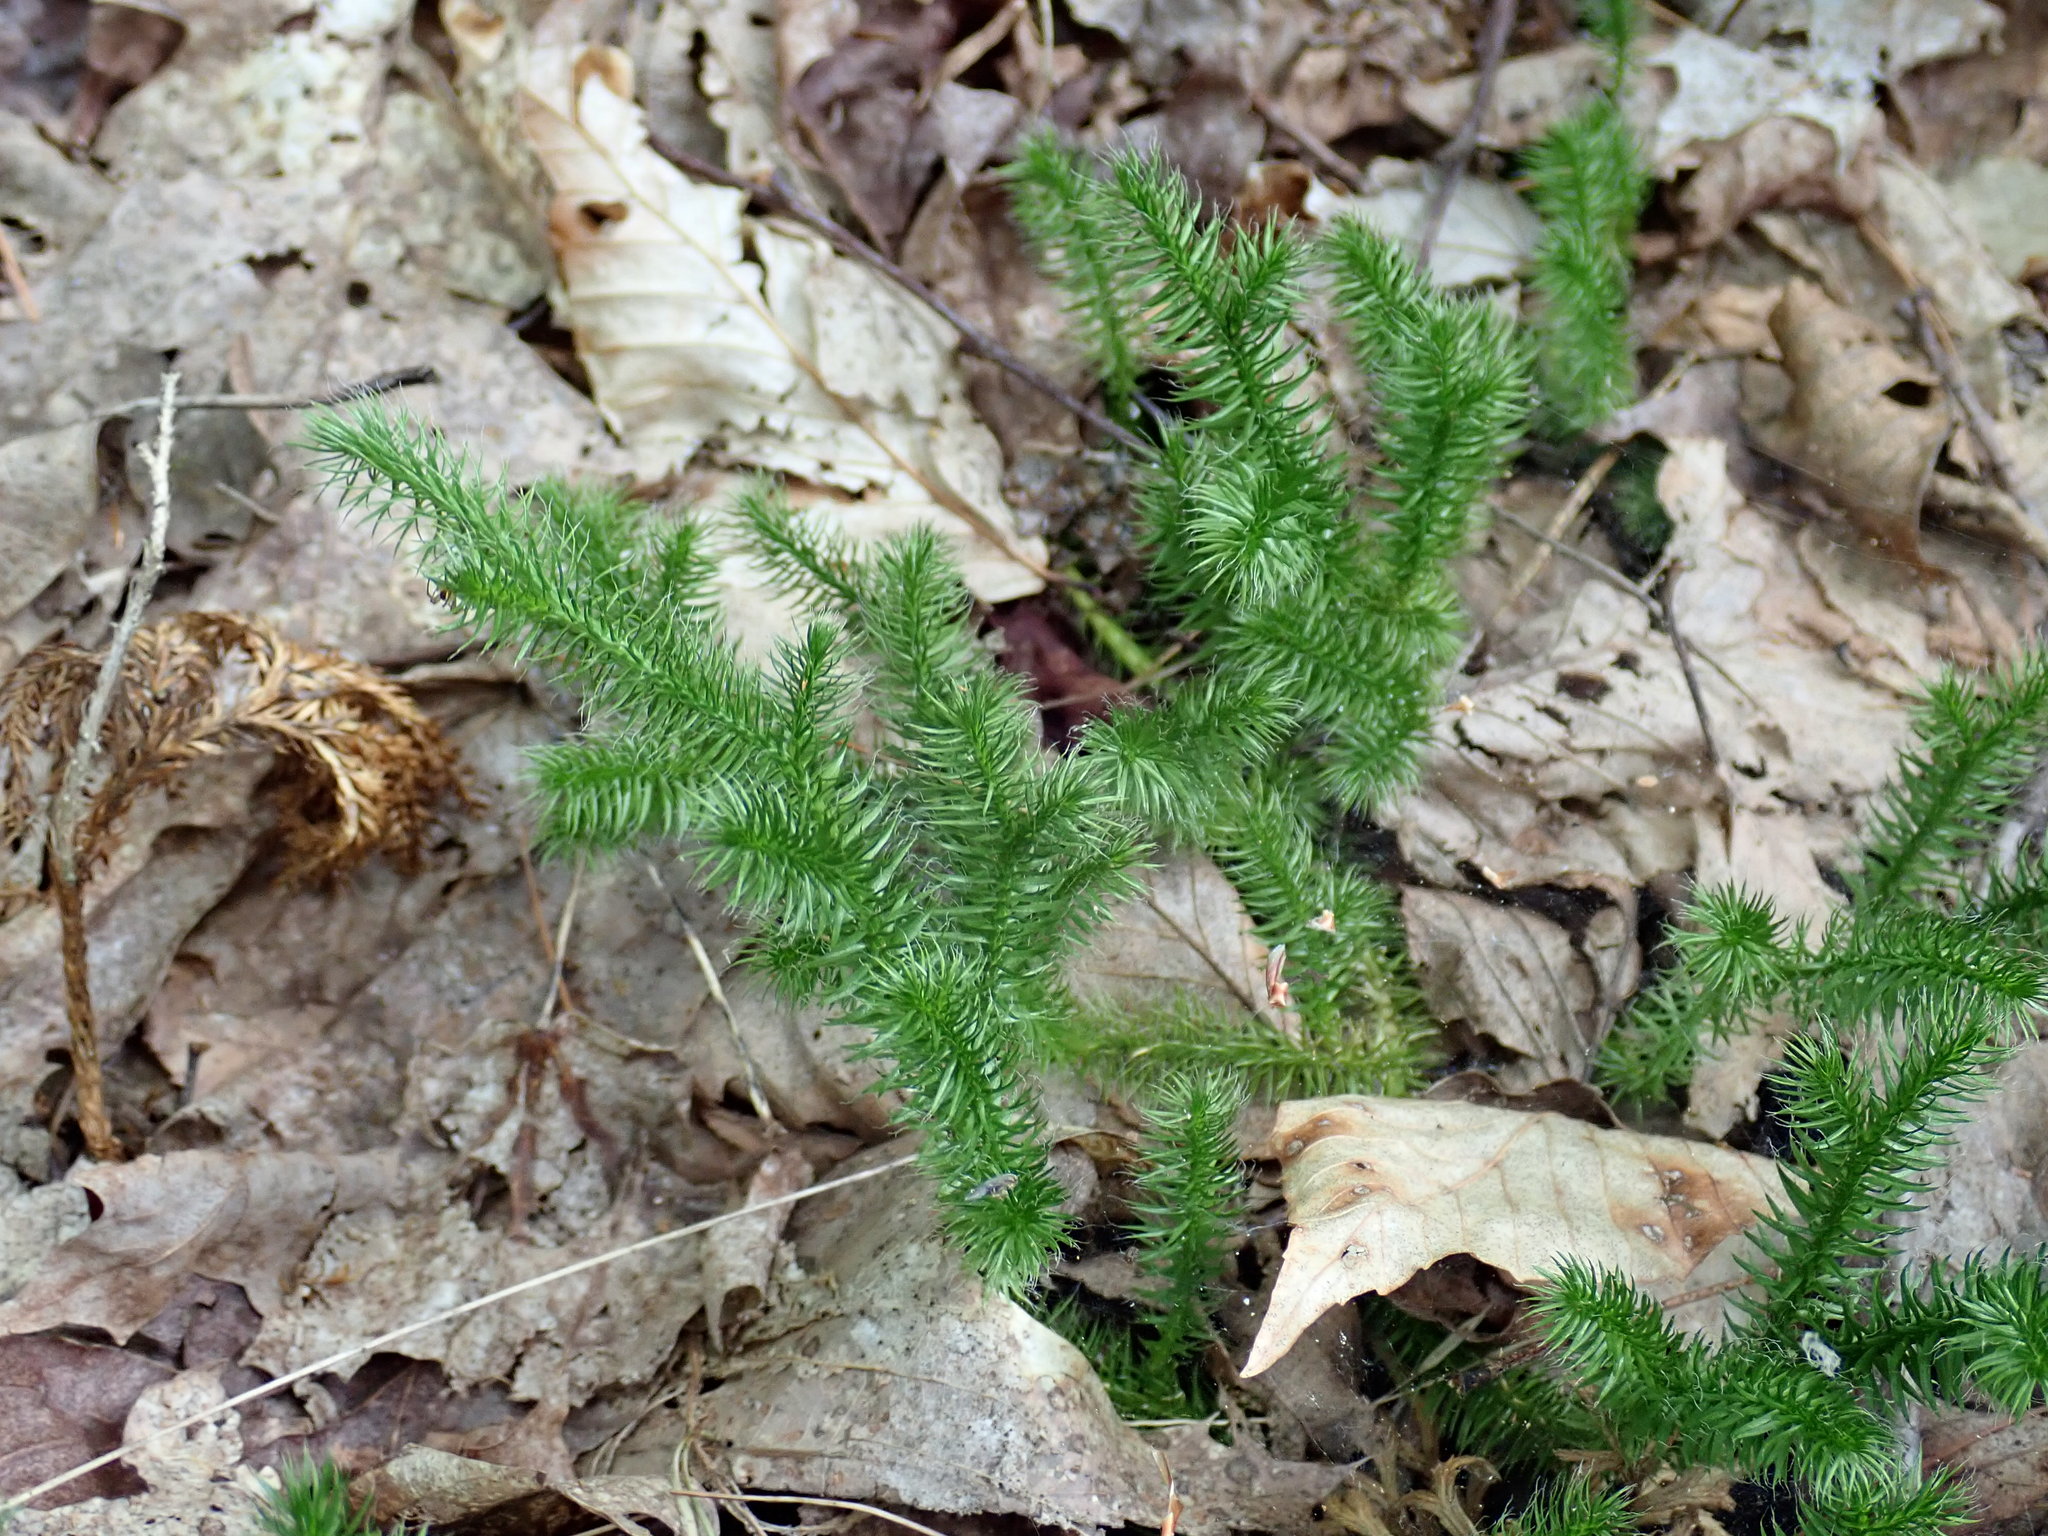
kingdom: Plantae
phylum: Tracheophyta
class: Lycopodiopsida
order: Lycopodiales
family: Lycopodiaceae
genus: Lycopodium
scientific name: Lycopodium clavatum
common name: Stag's-horn clubmoss
